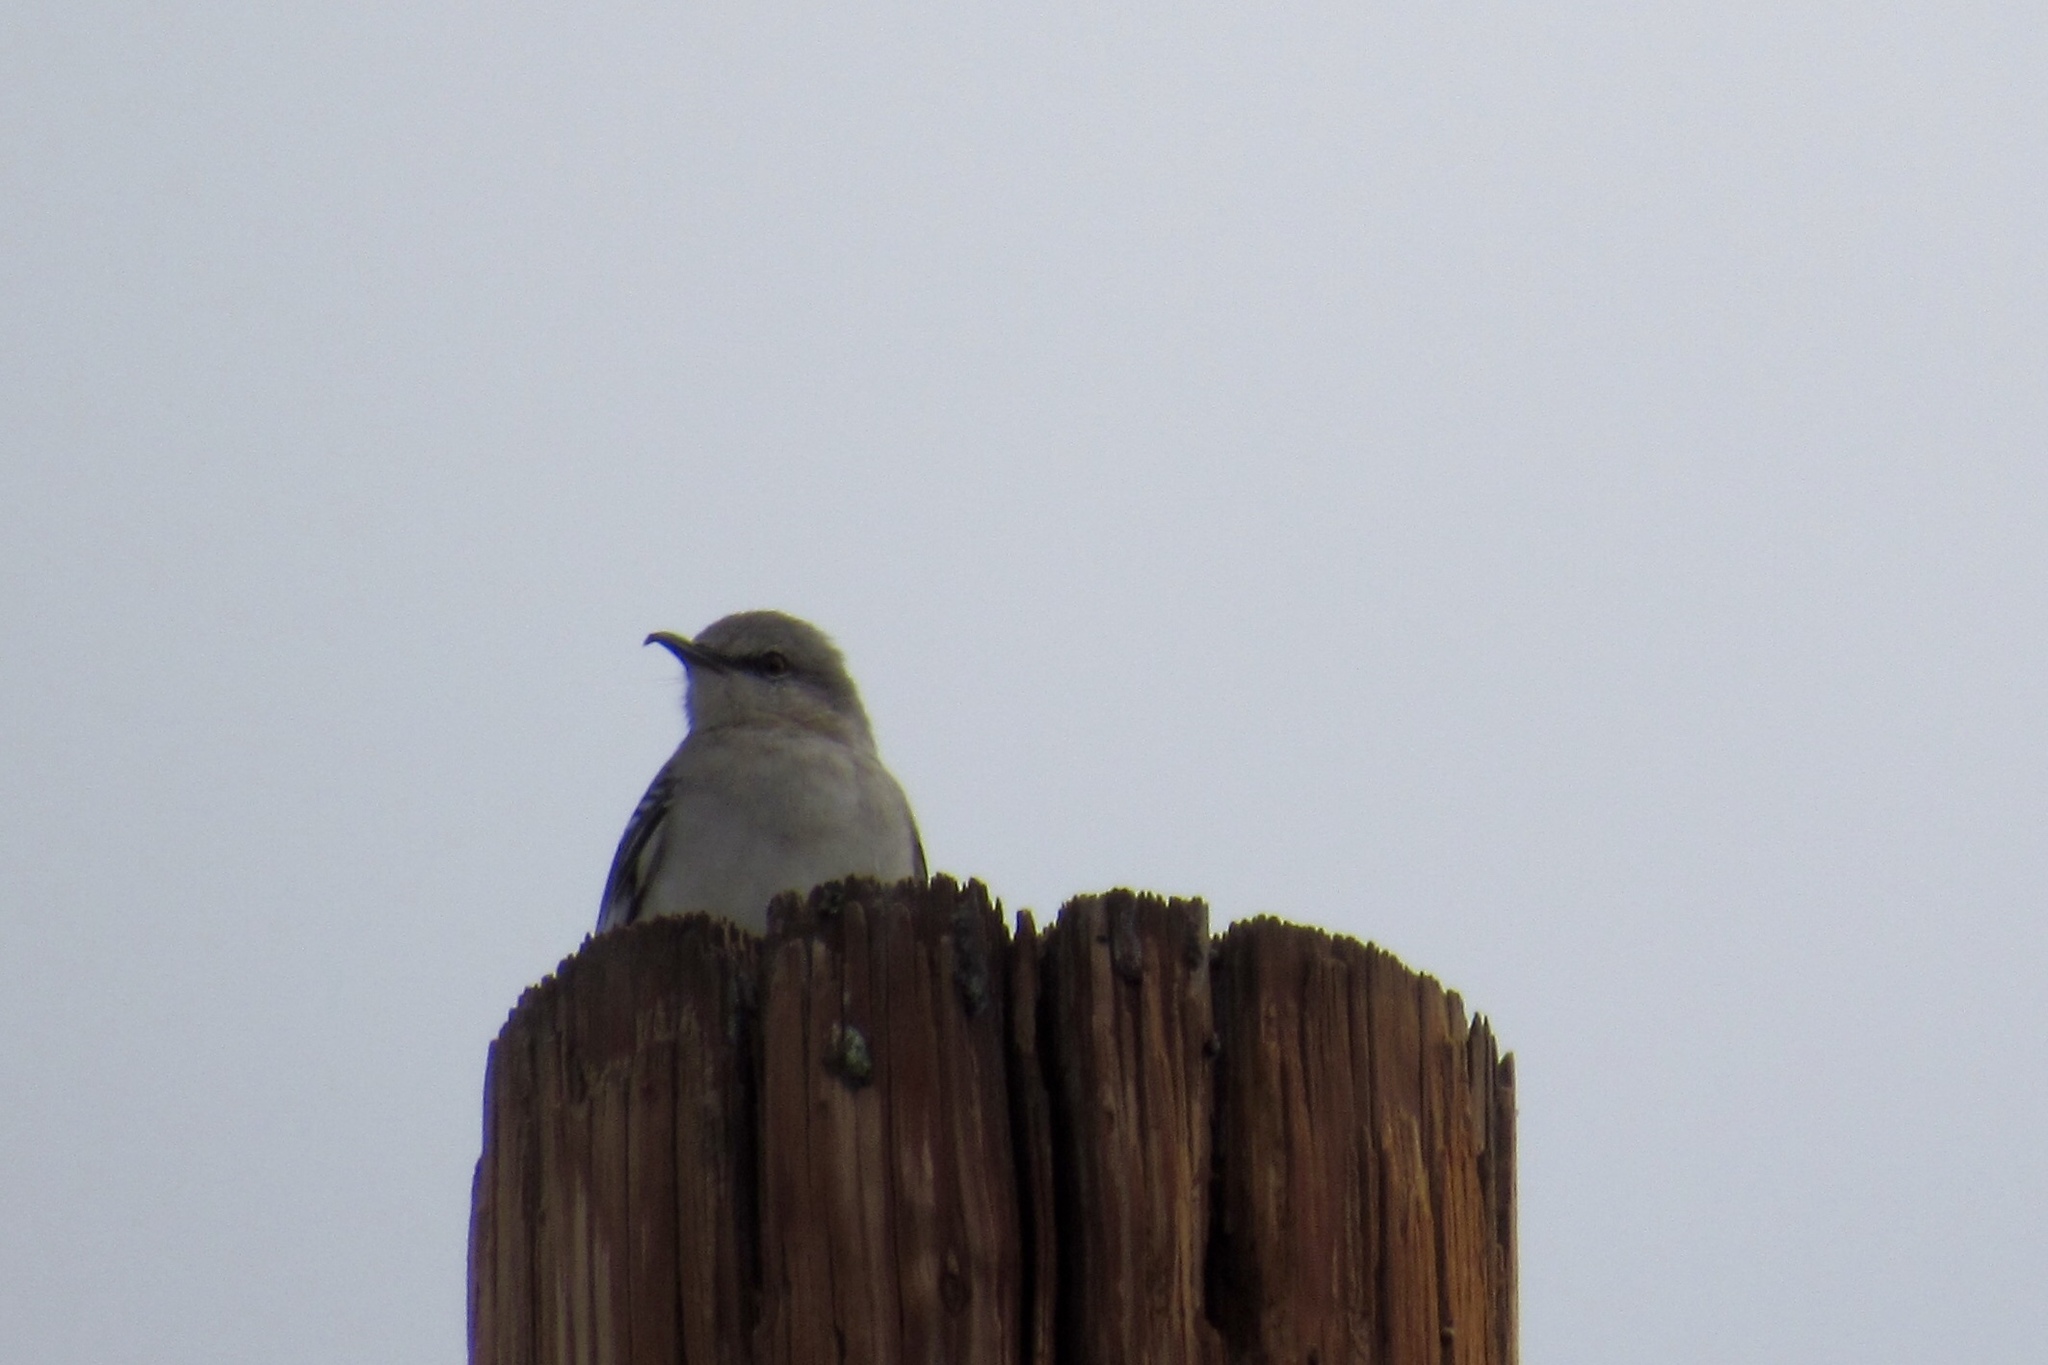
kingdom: Animalia
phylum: Chordata
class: Aves
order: Passeriformes
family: Mimidae
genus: Mimus
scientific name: Mimus polyglottos
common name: Northern mockingbird
